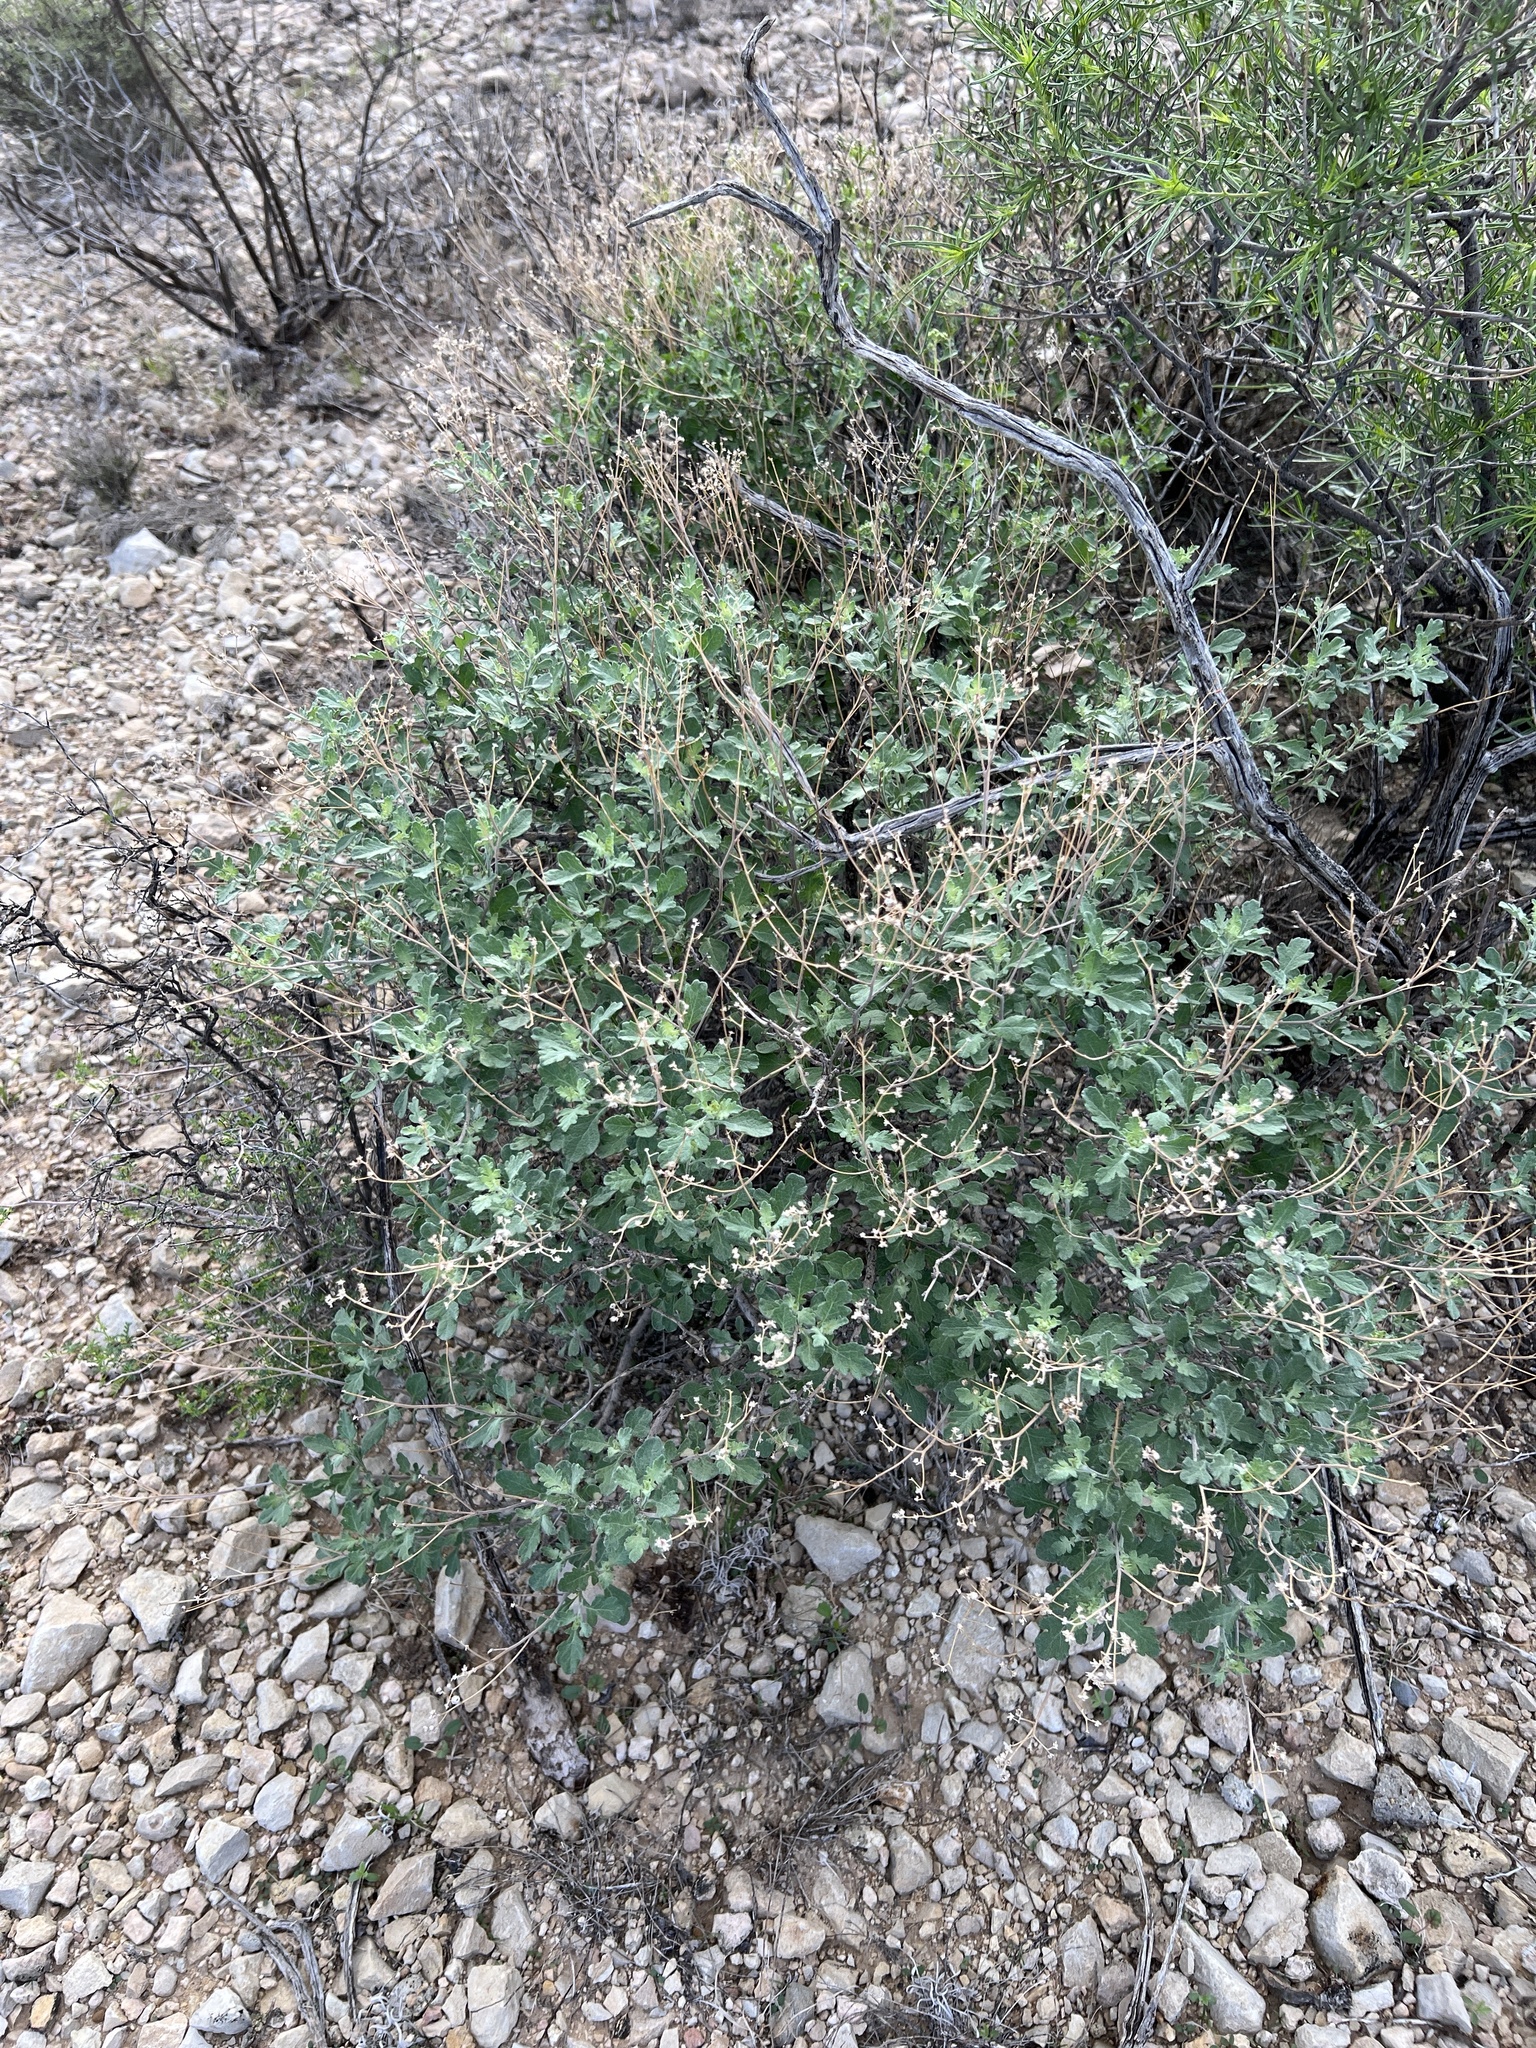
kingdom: Plantae
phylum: Tracheophyta
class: Magnoliopsida
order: Asterales
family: Asteraceae
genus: Parthenium
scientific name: Parthenium incanum
